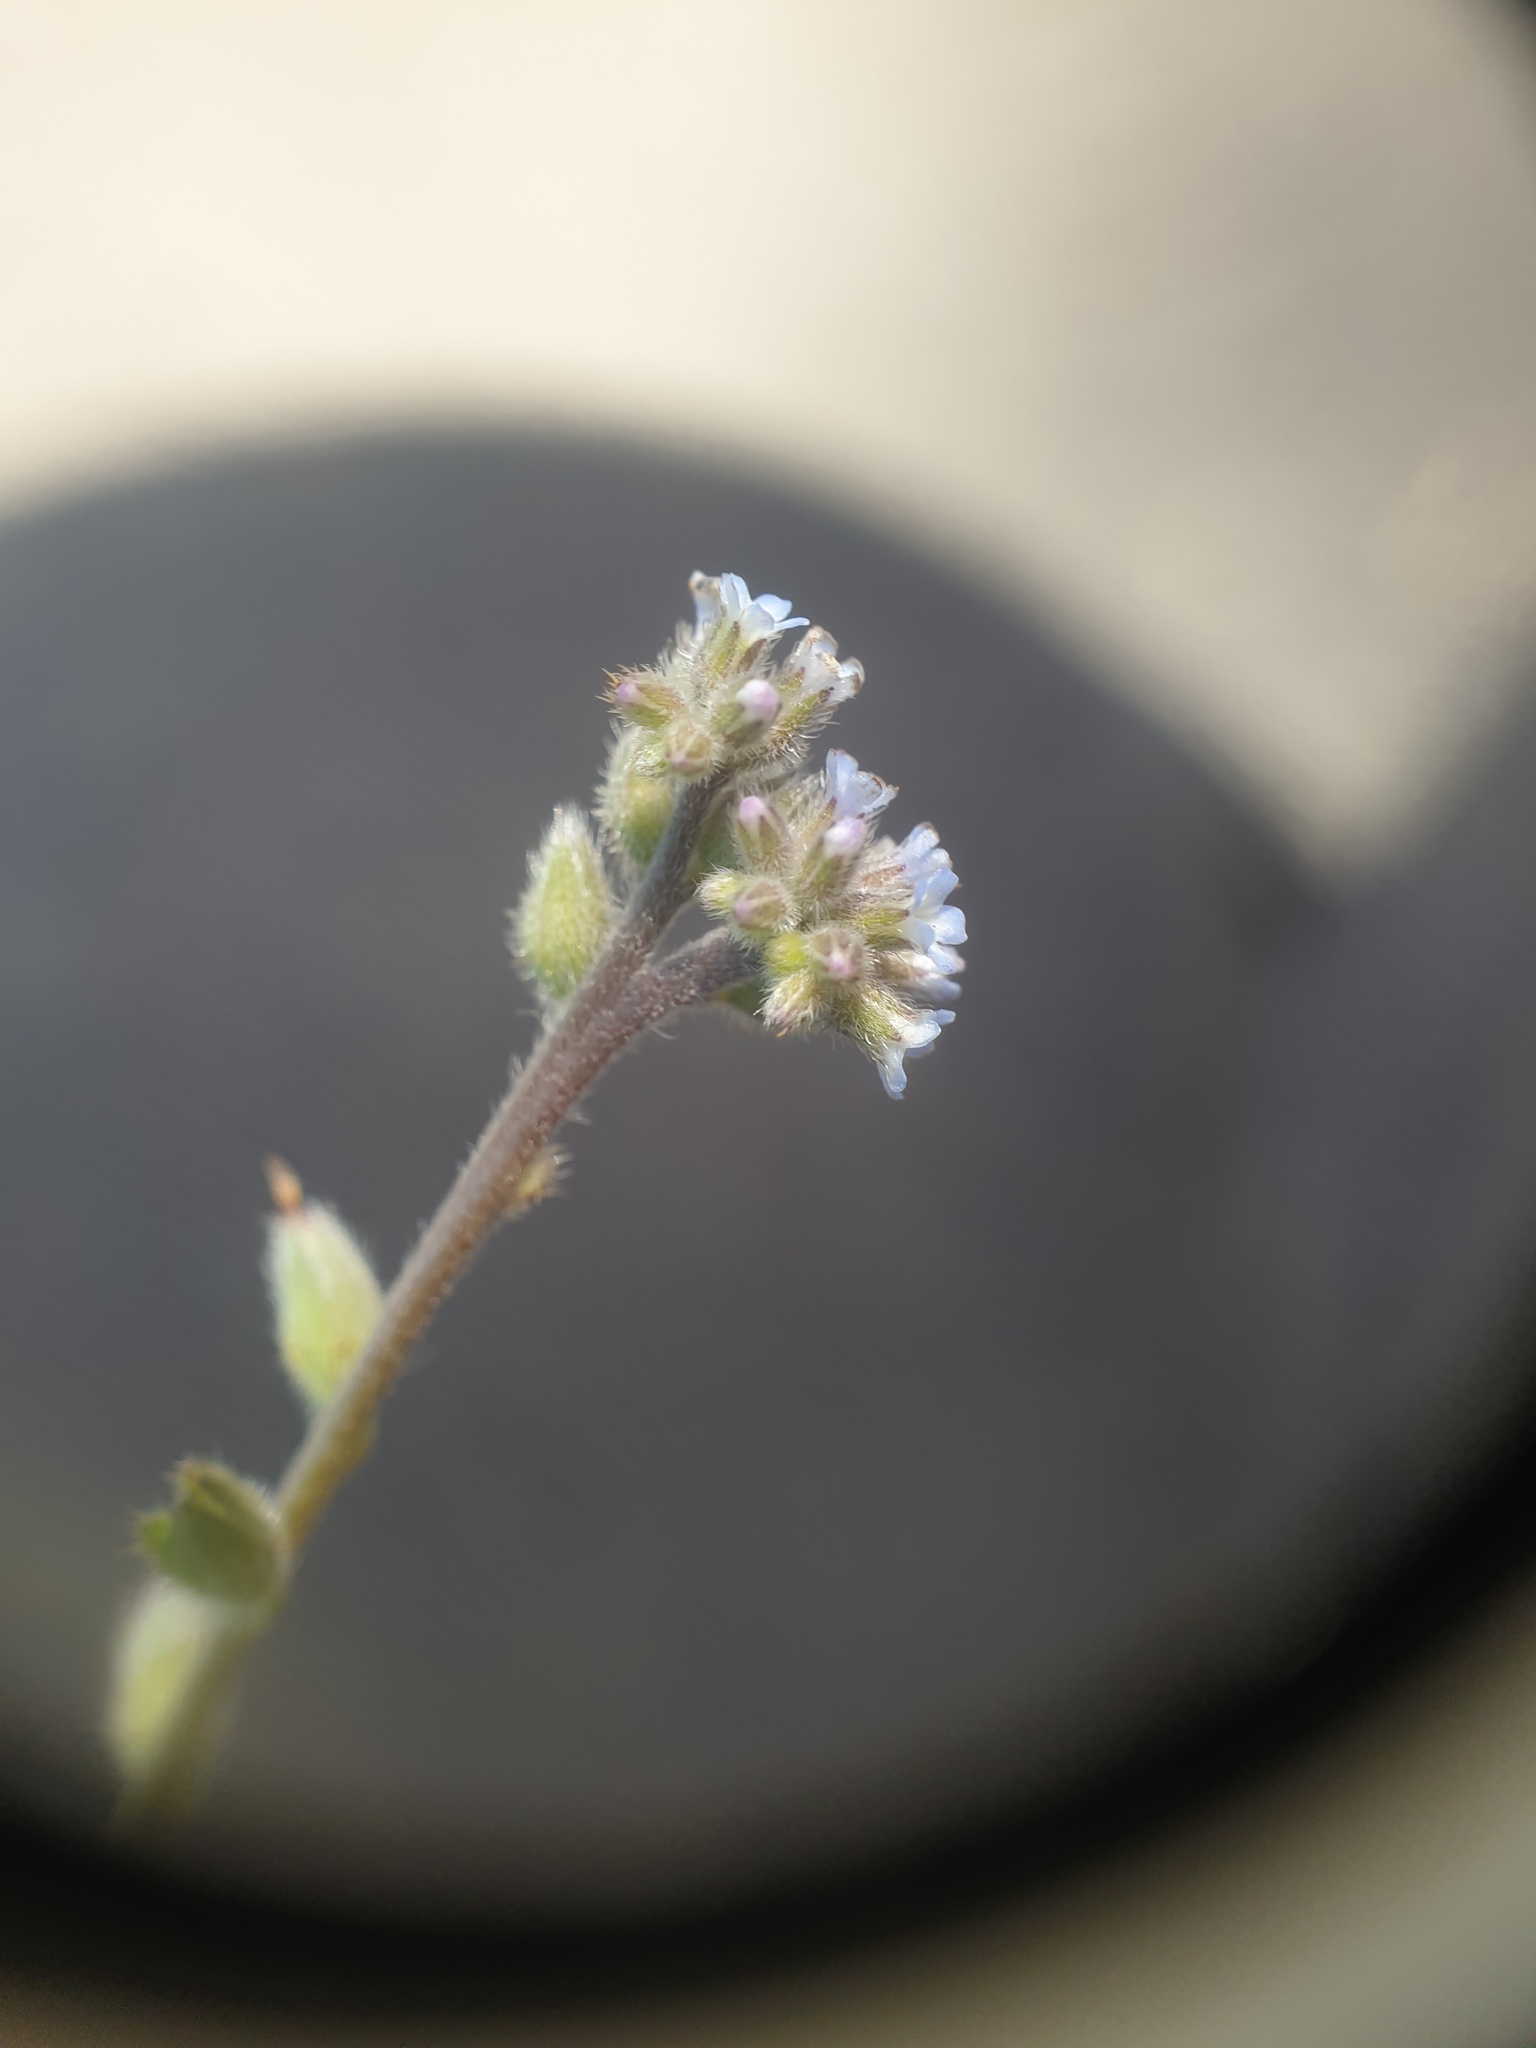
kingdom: Plantae
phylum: Tracheophyta
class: Magnoliopsida
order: Boraginales
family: Boraginaceae
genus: Myosotis
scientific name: Myosotis stricta
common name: Strict forget-me-not
